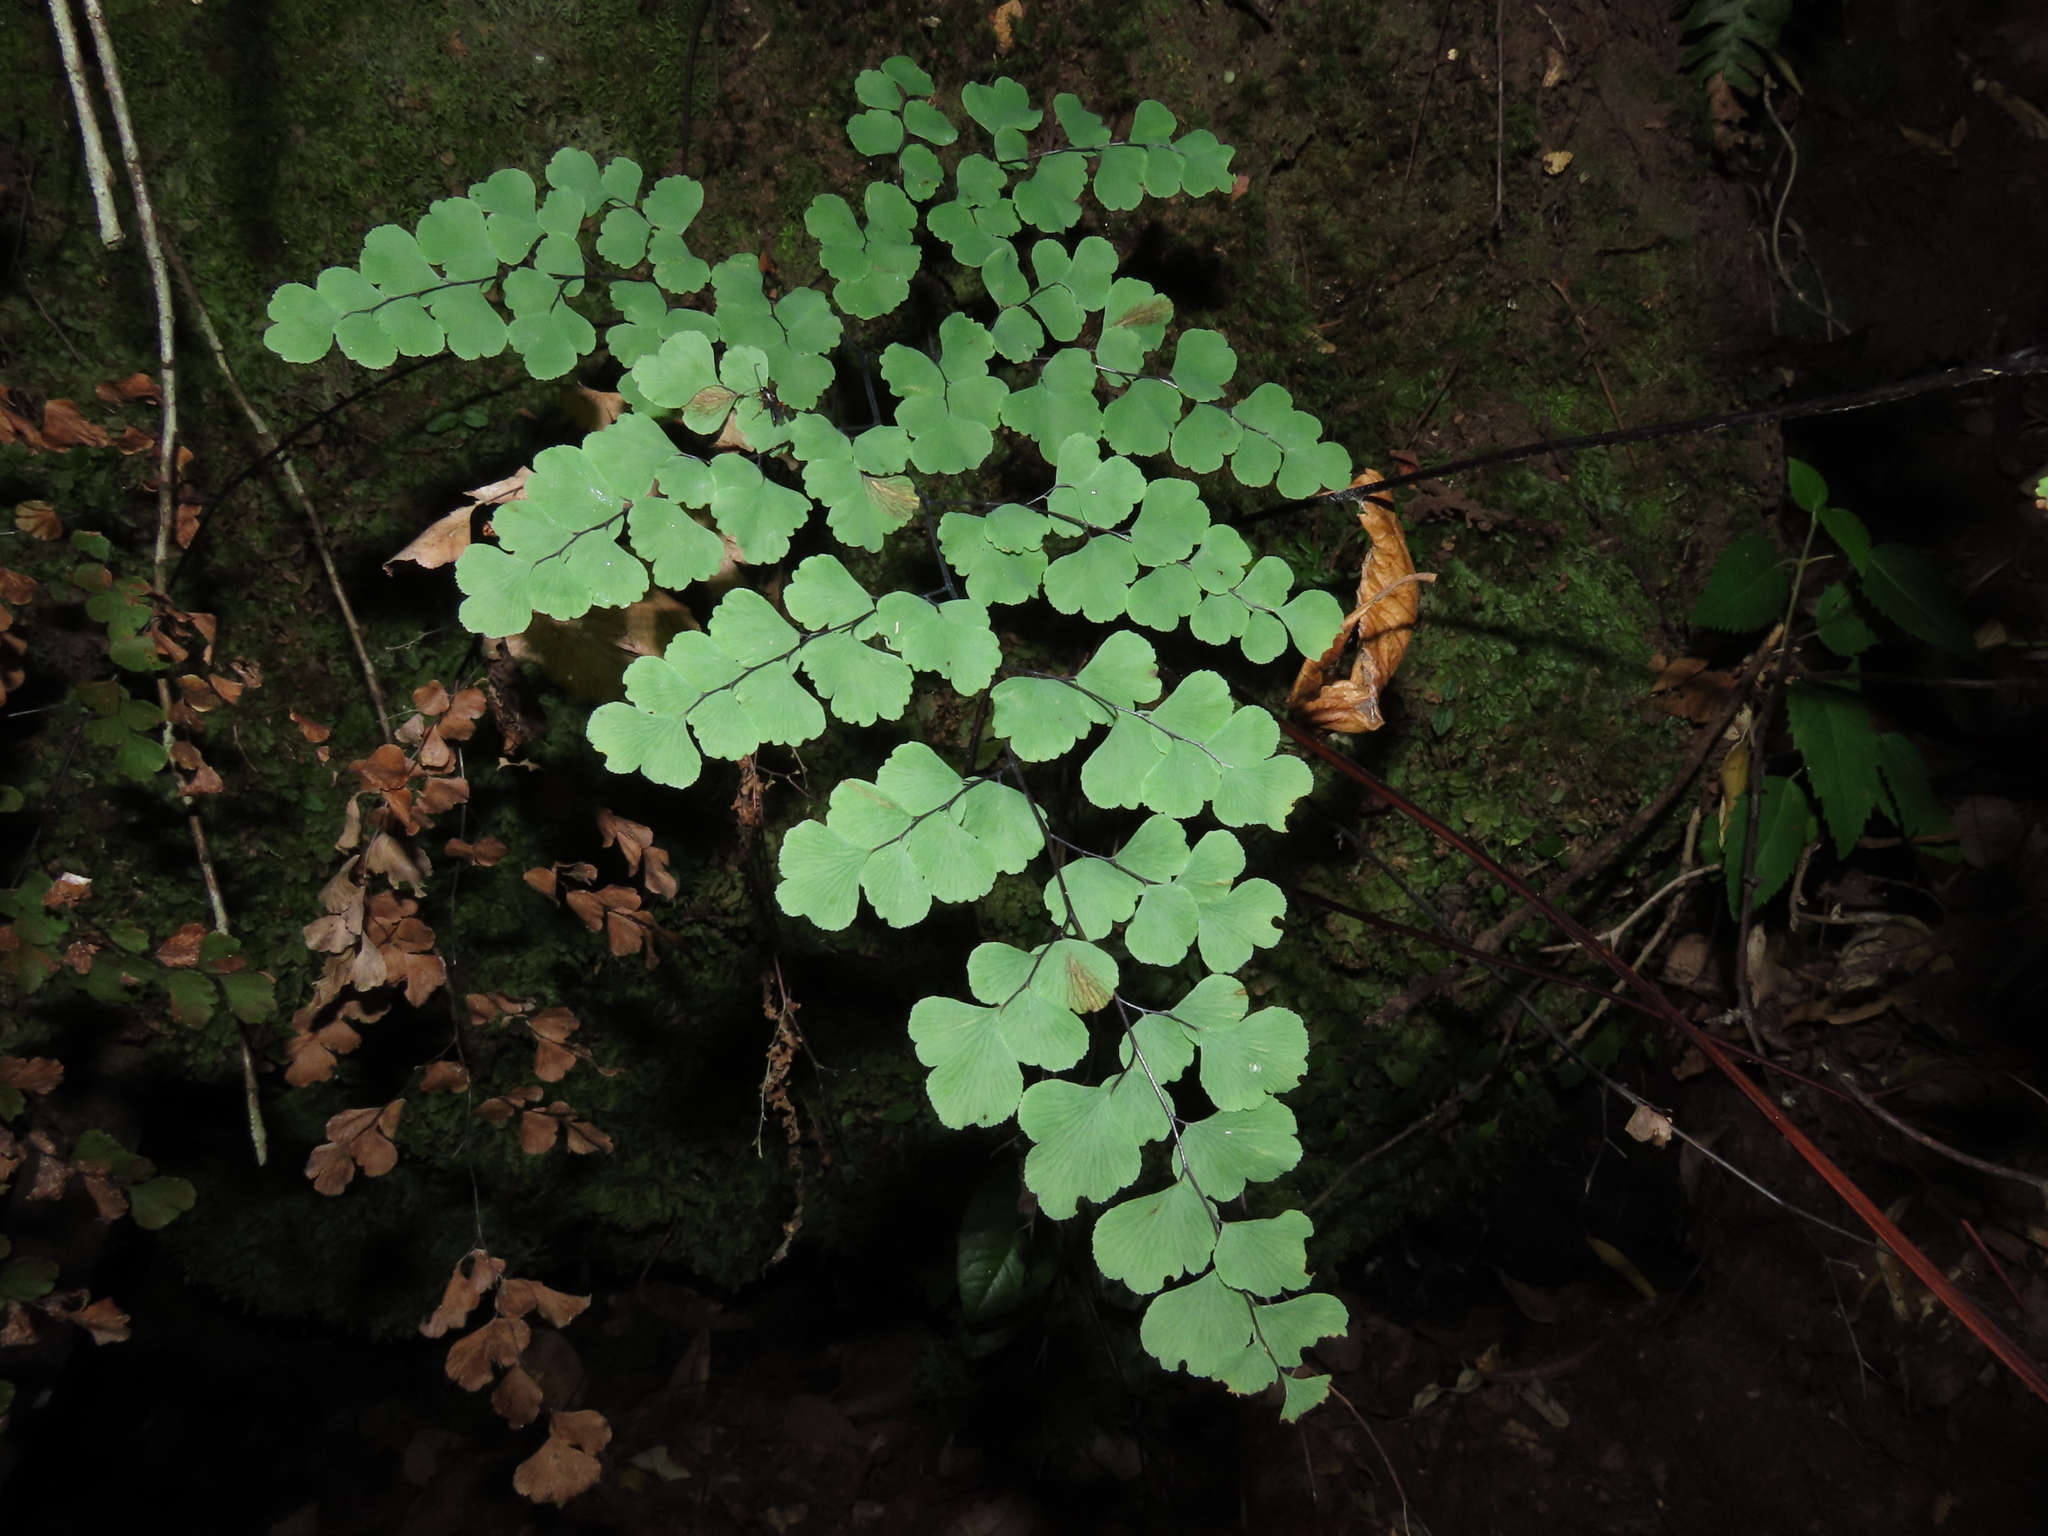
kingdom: Plantae
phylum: Tracheophyta
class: Polypodiopsida
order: Polypodiales
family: Pteridaceae
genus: Adiantum
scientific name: Adiantum chilense
